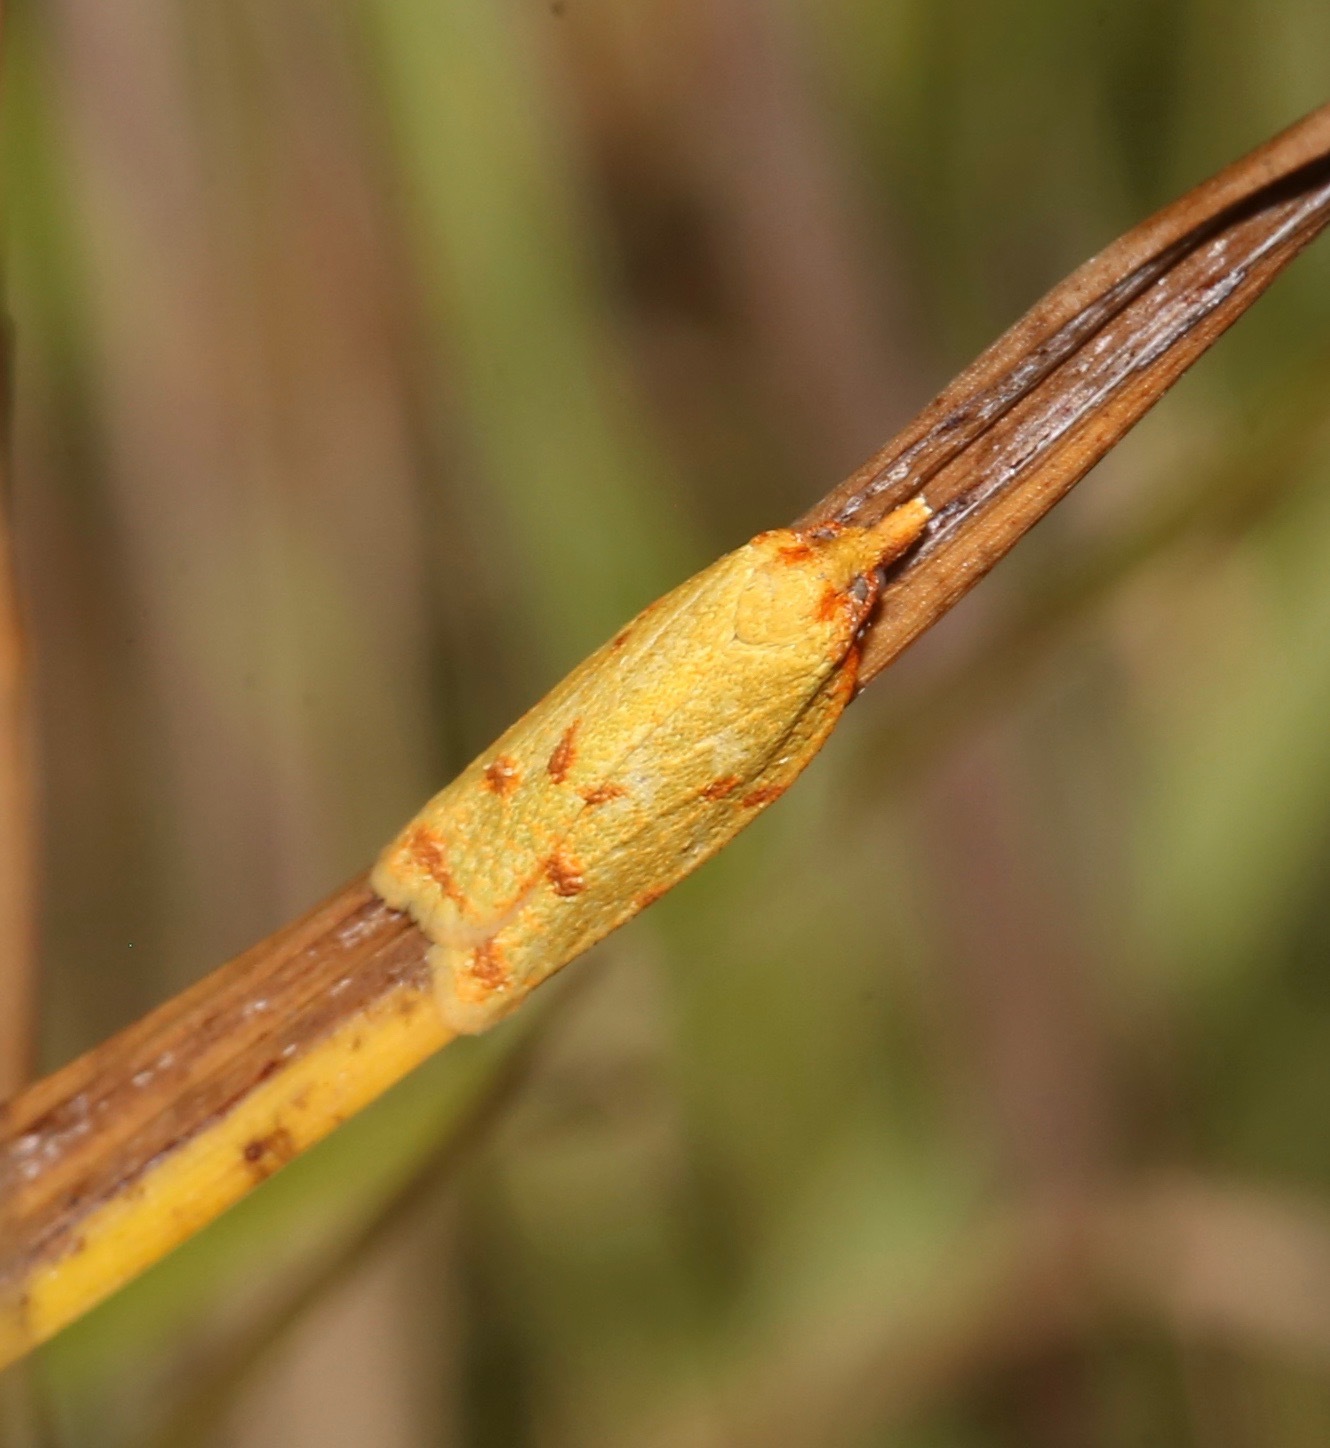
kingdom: Animalia
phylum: Arthropoda
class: Insecta
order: Lepidoptera
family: Tortricidae
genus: Sparganothis
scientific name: Sparganothis sulfureana
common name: Sparganothis fruitworm moth
